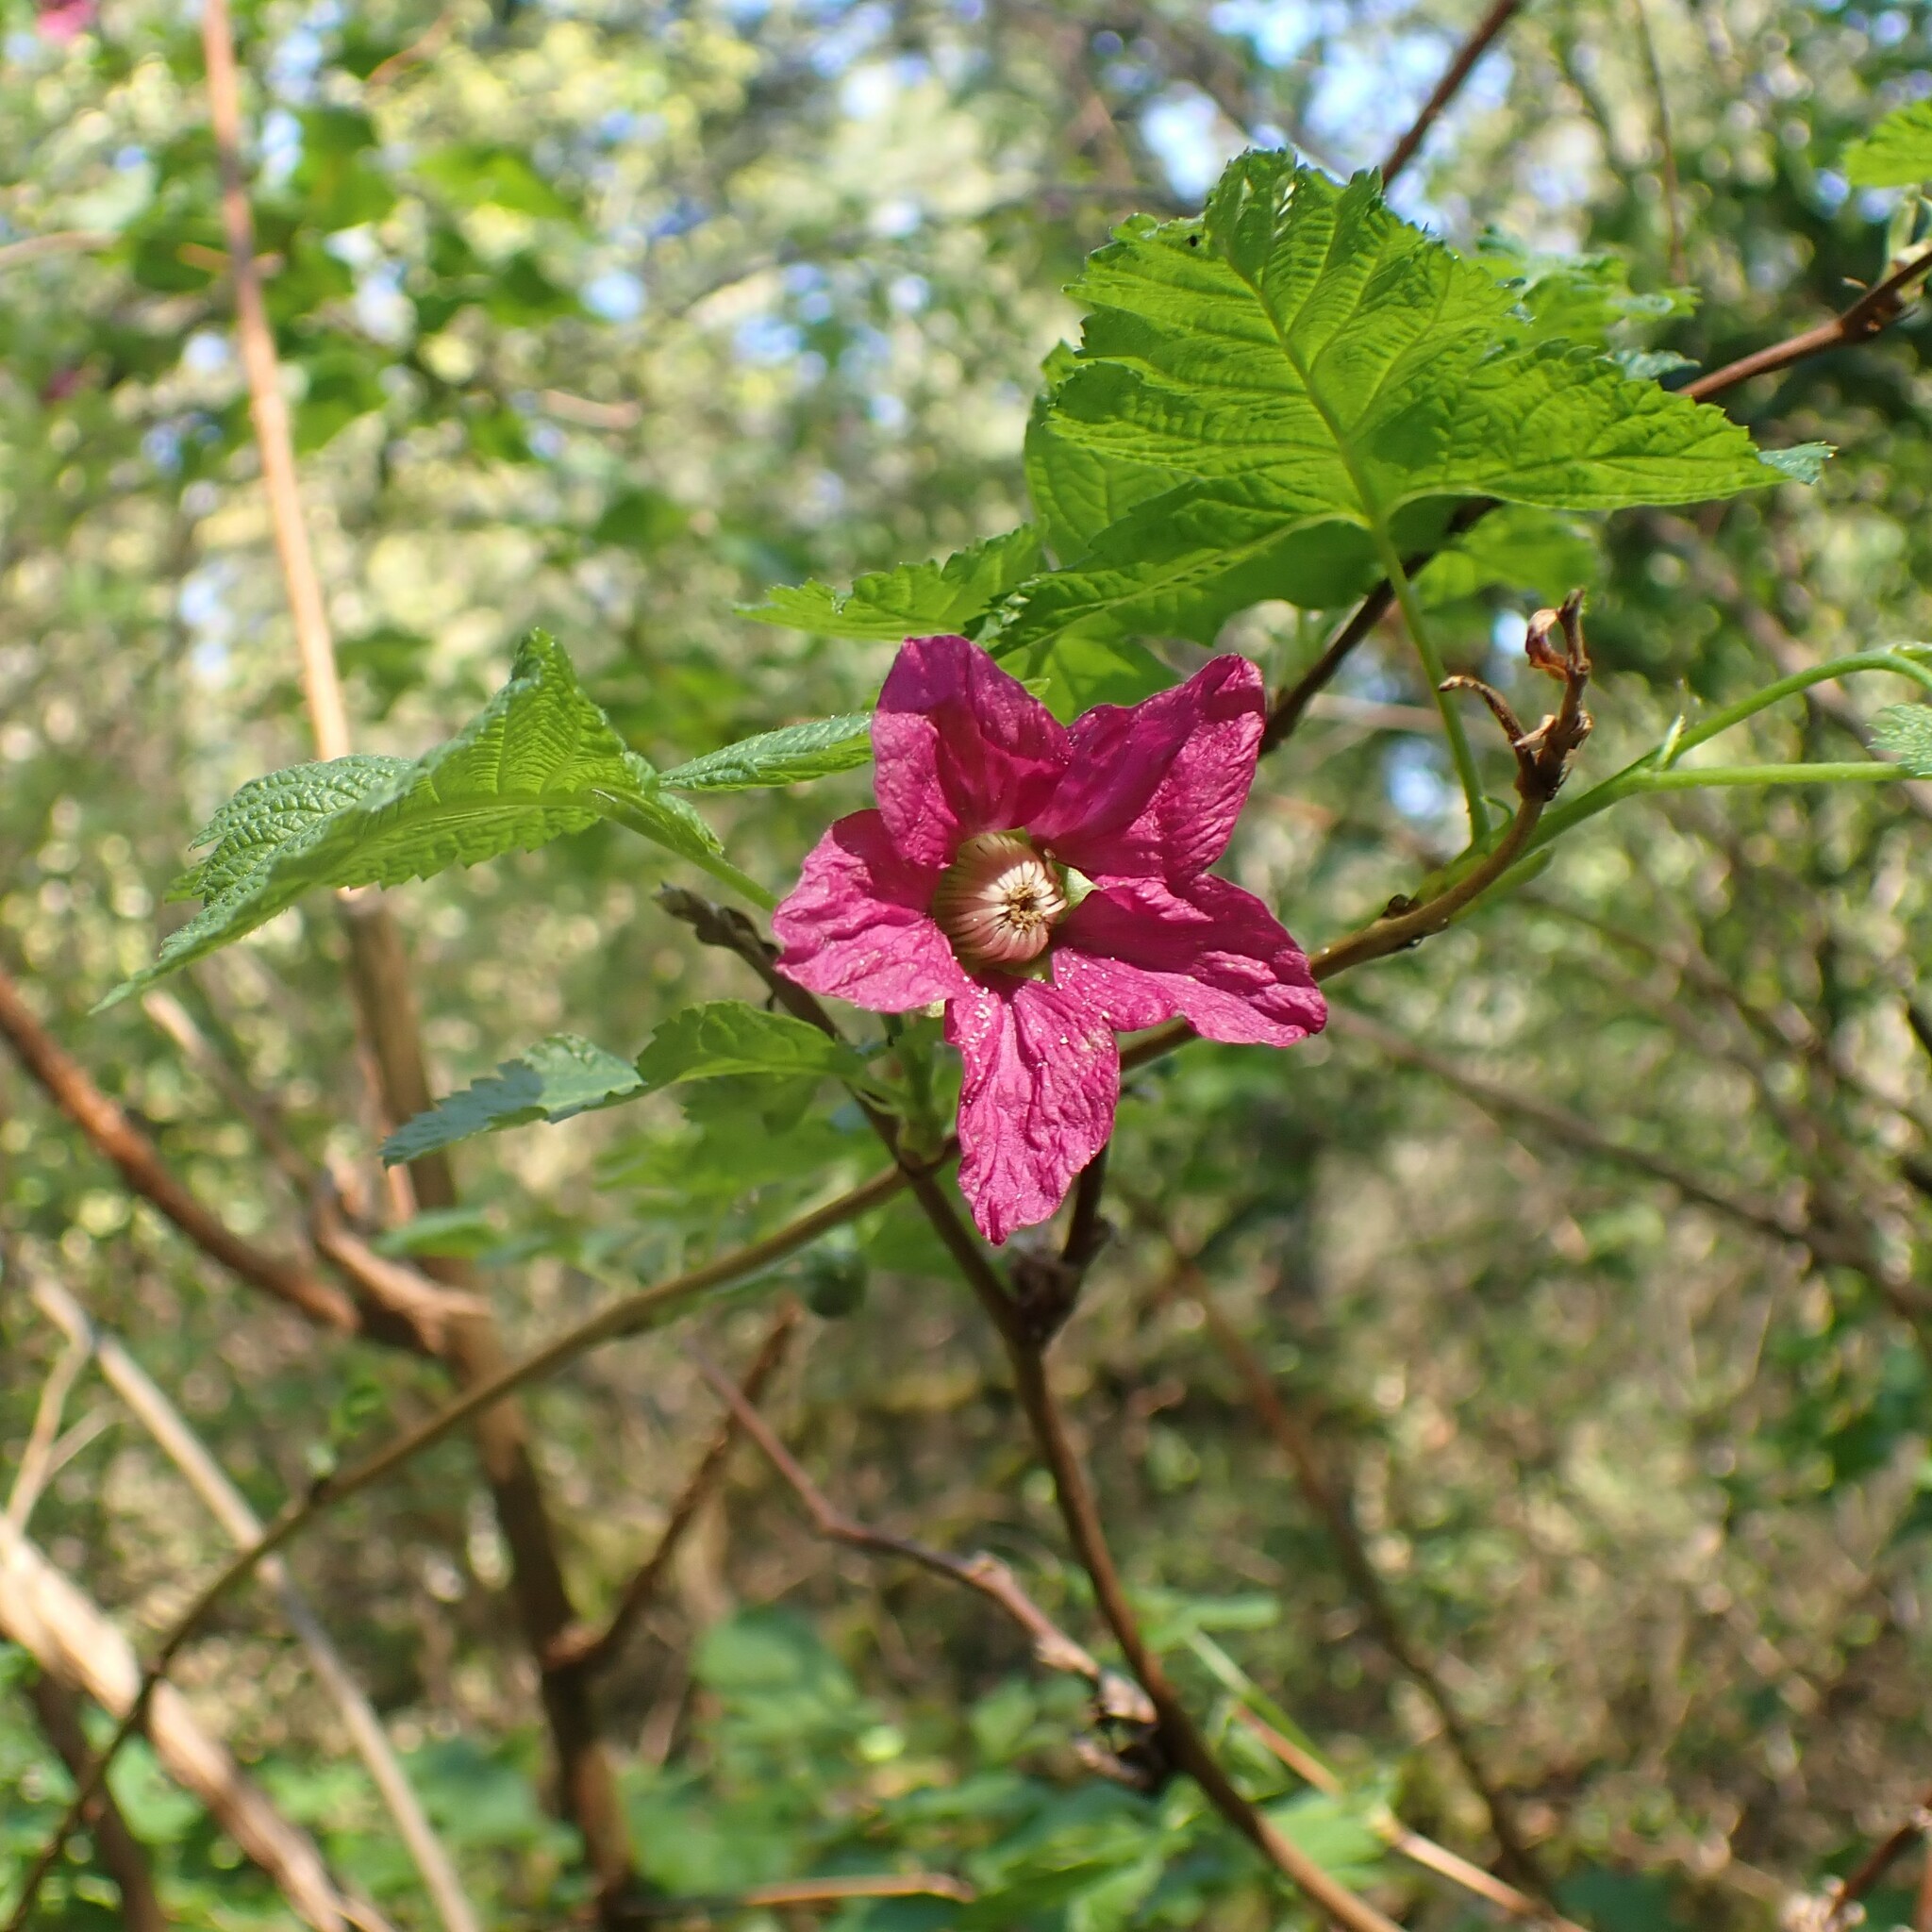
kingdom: Plantae
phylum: Tracheophyta
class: Magnoliopsida
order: Rosales
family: Rosaceae
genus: Rubus
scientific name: Rubus spectabilis
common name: Salmonberry
